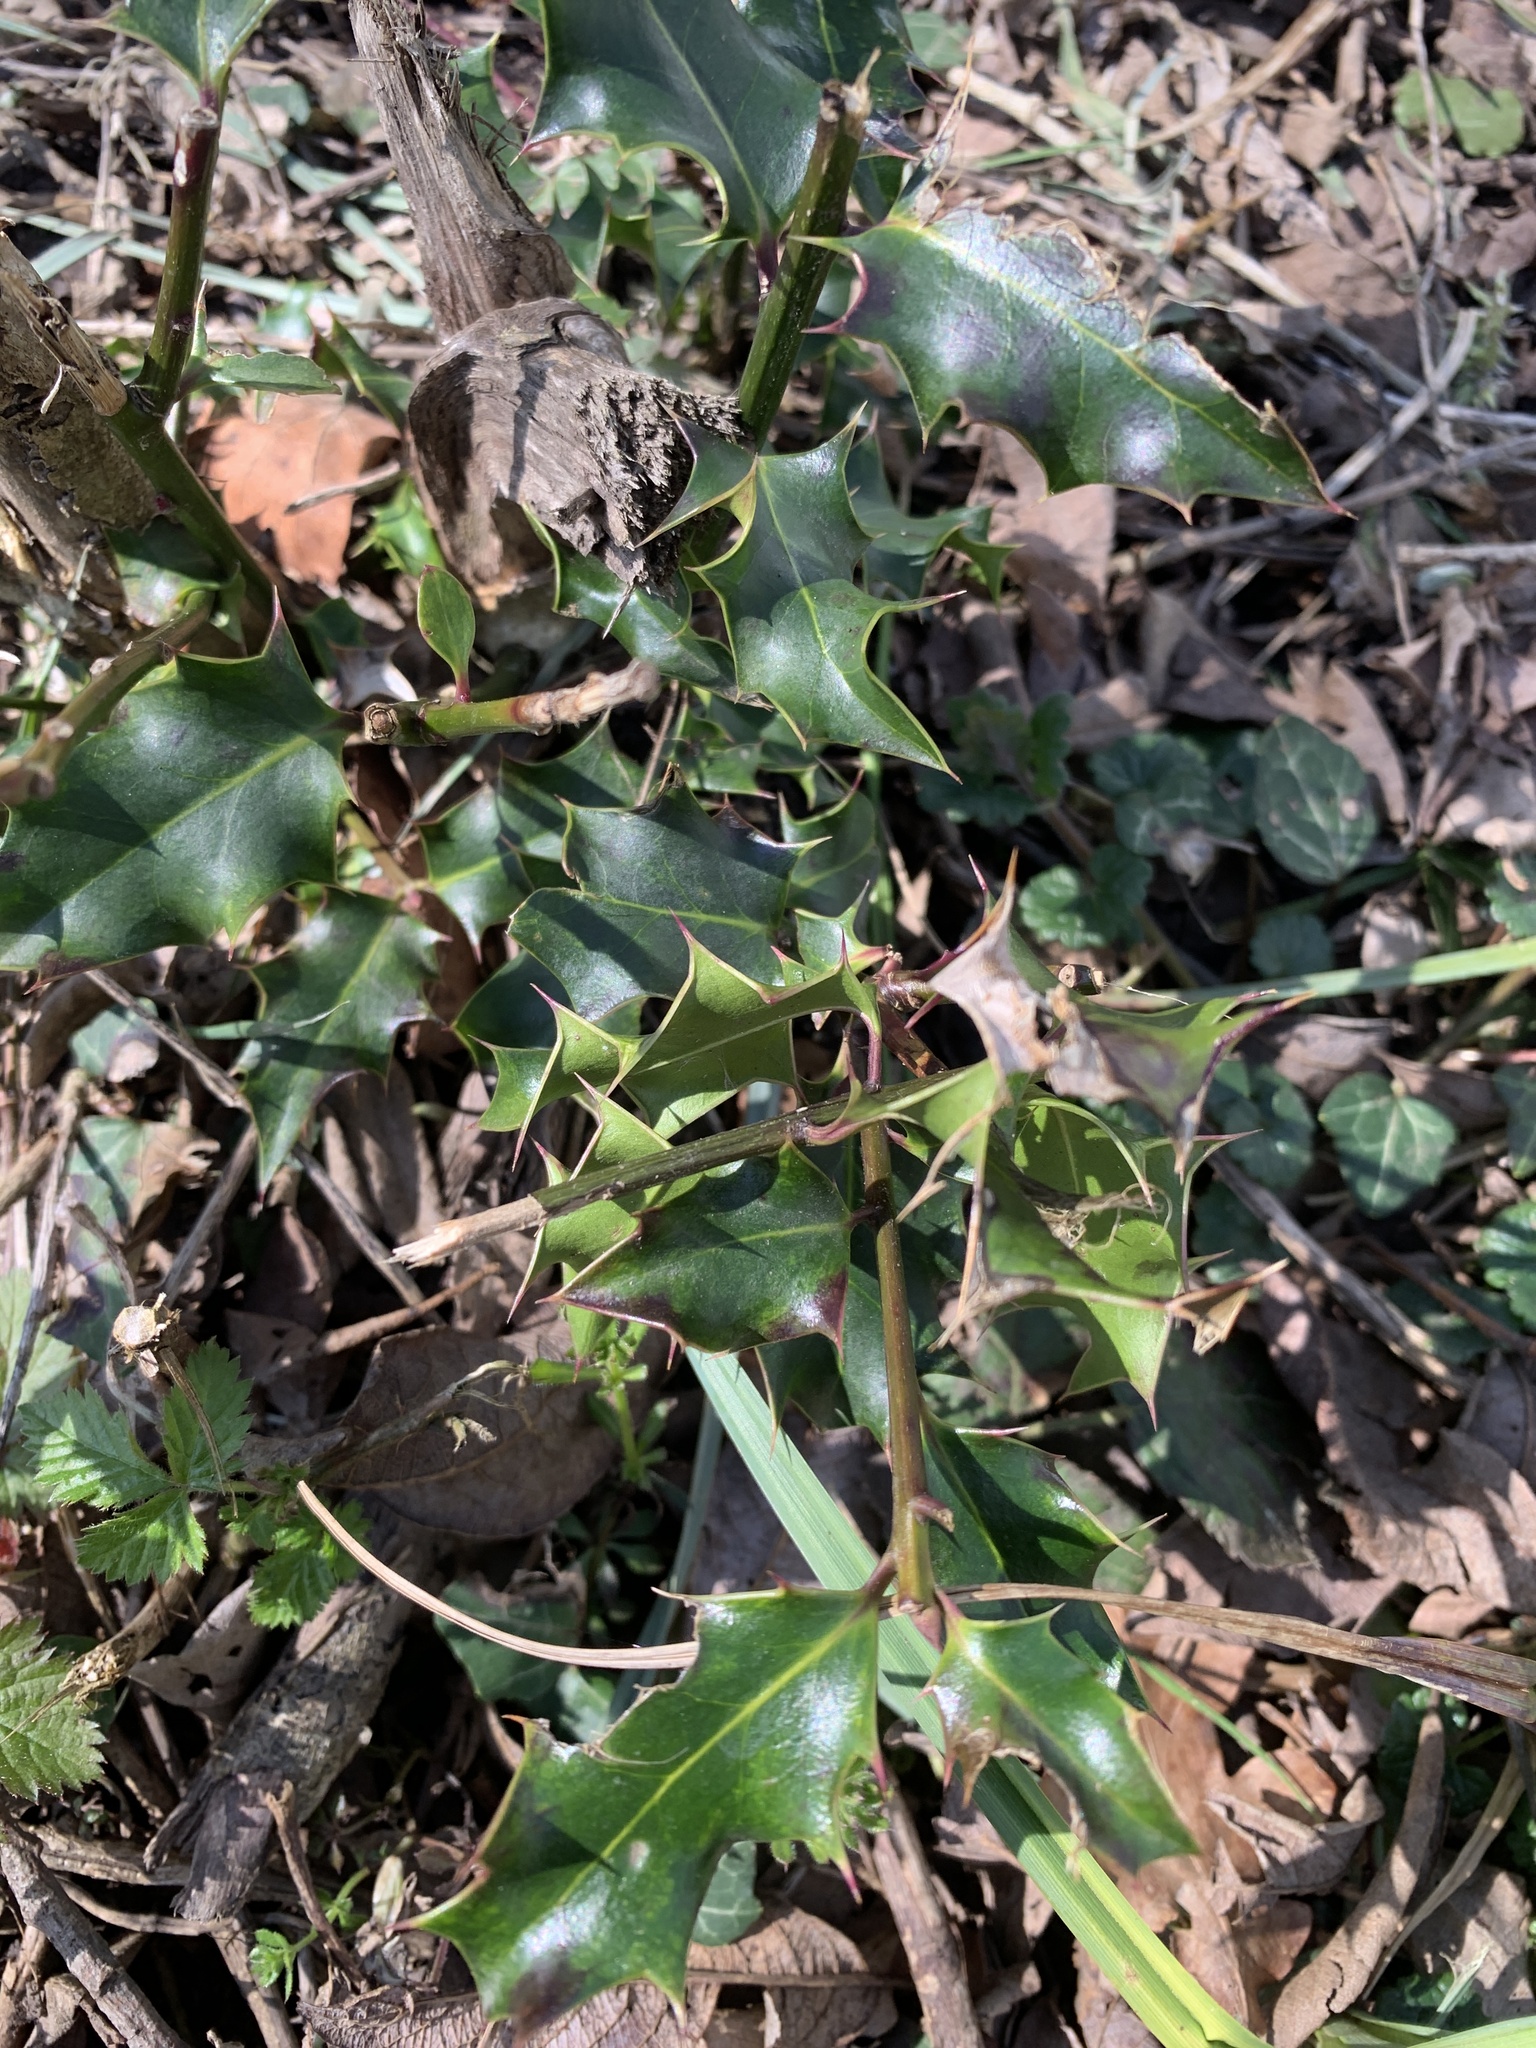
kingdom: Plantae
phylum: Tracheophyta
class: Magnoliopsida
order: Aquifoliales
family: Aquifoliaceae
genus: Ilex
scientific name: Ilex aquifolium
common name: English holly
